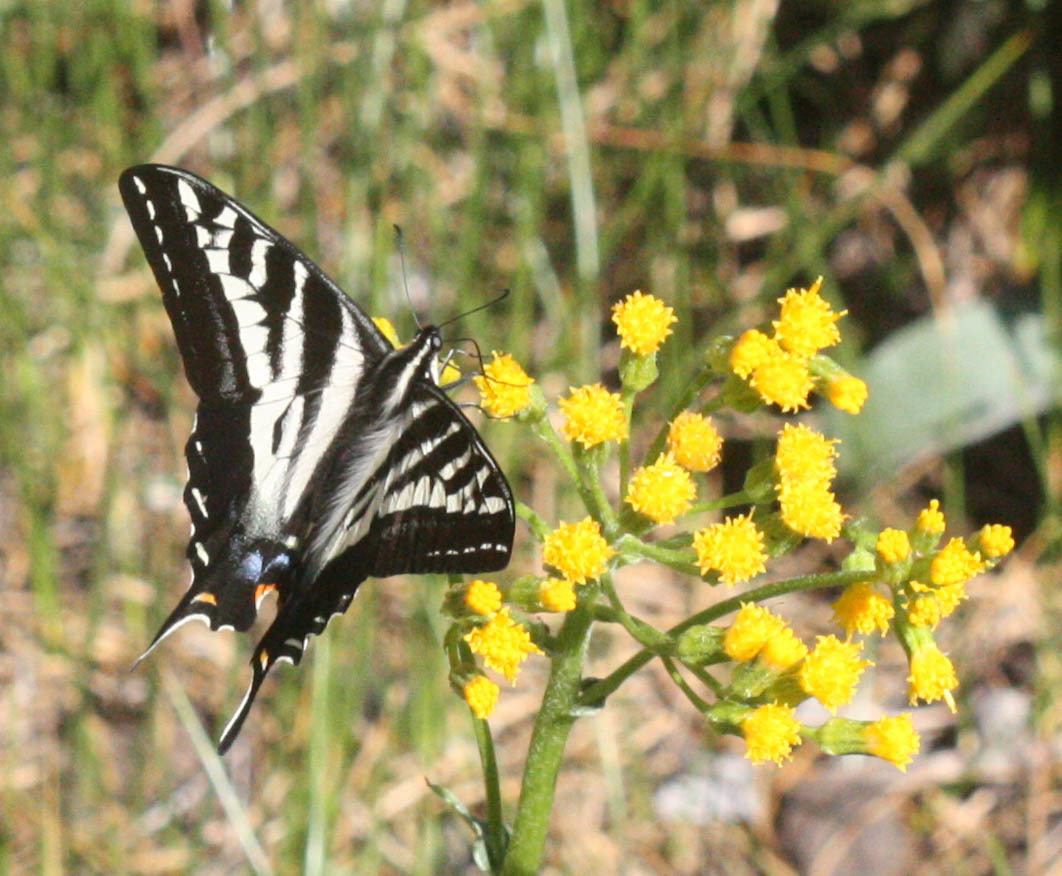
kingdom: Animalia
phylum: Arthropoda
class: Insecta
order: Lepidoptera
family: Papilionidae
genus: Papilio
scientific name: Papilio eurymedon
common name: Pale tiger swallowtail
